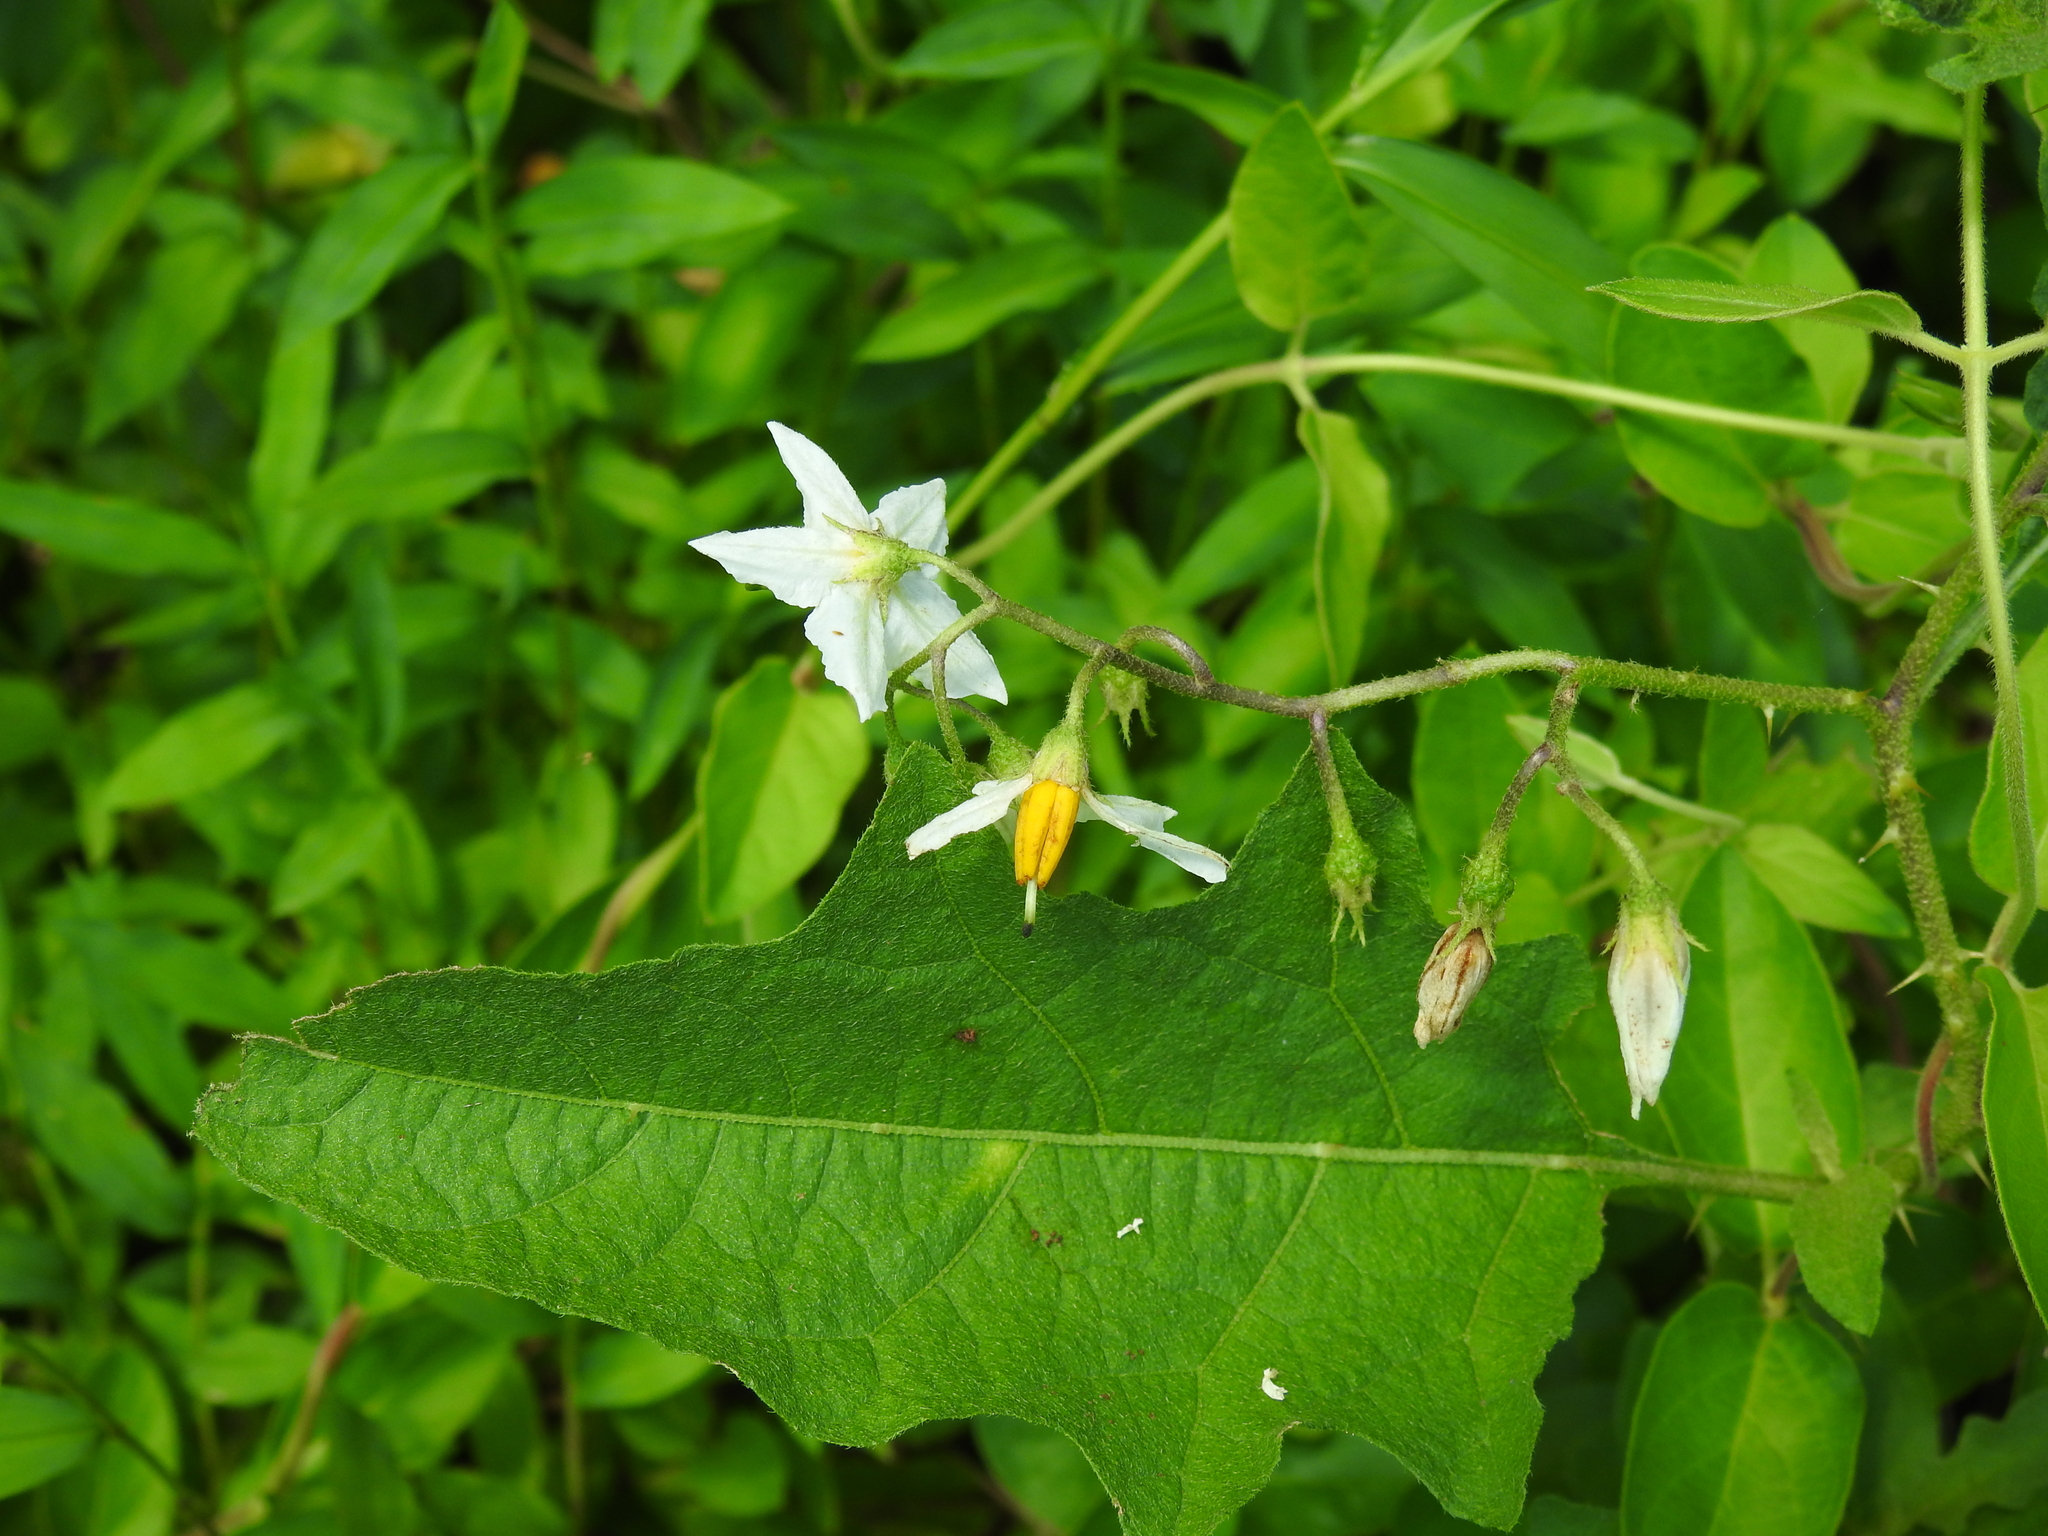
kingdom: Plantae
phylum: Tracheophyta
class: Magnoliopsida
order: Solanales
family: Solanaceae
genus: Solanum
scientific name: Solanum carolinense
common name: Horse-nettle
